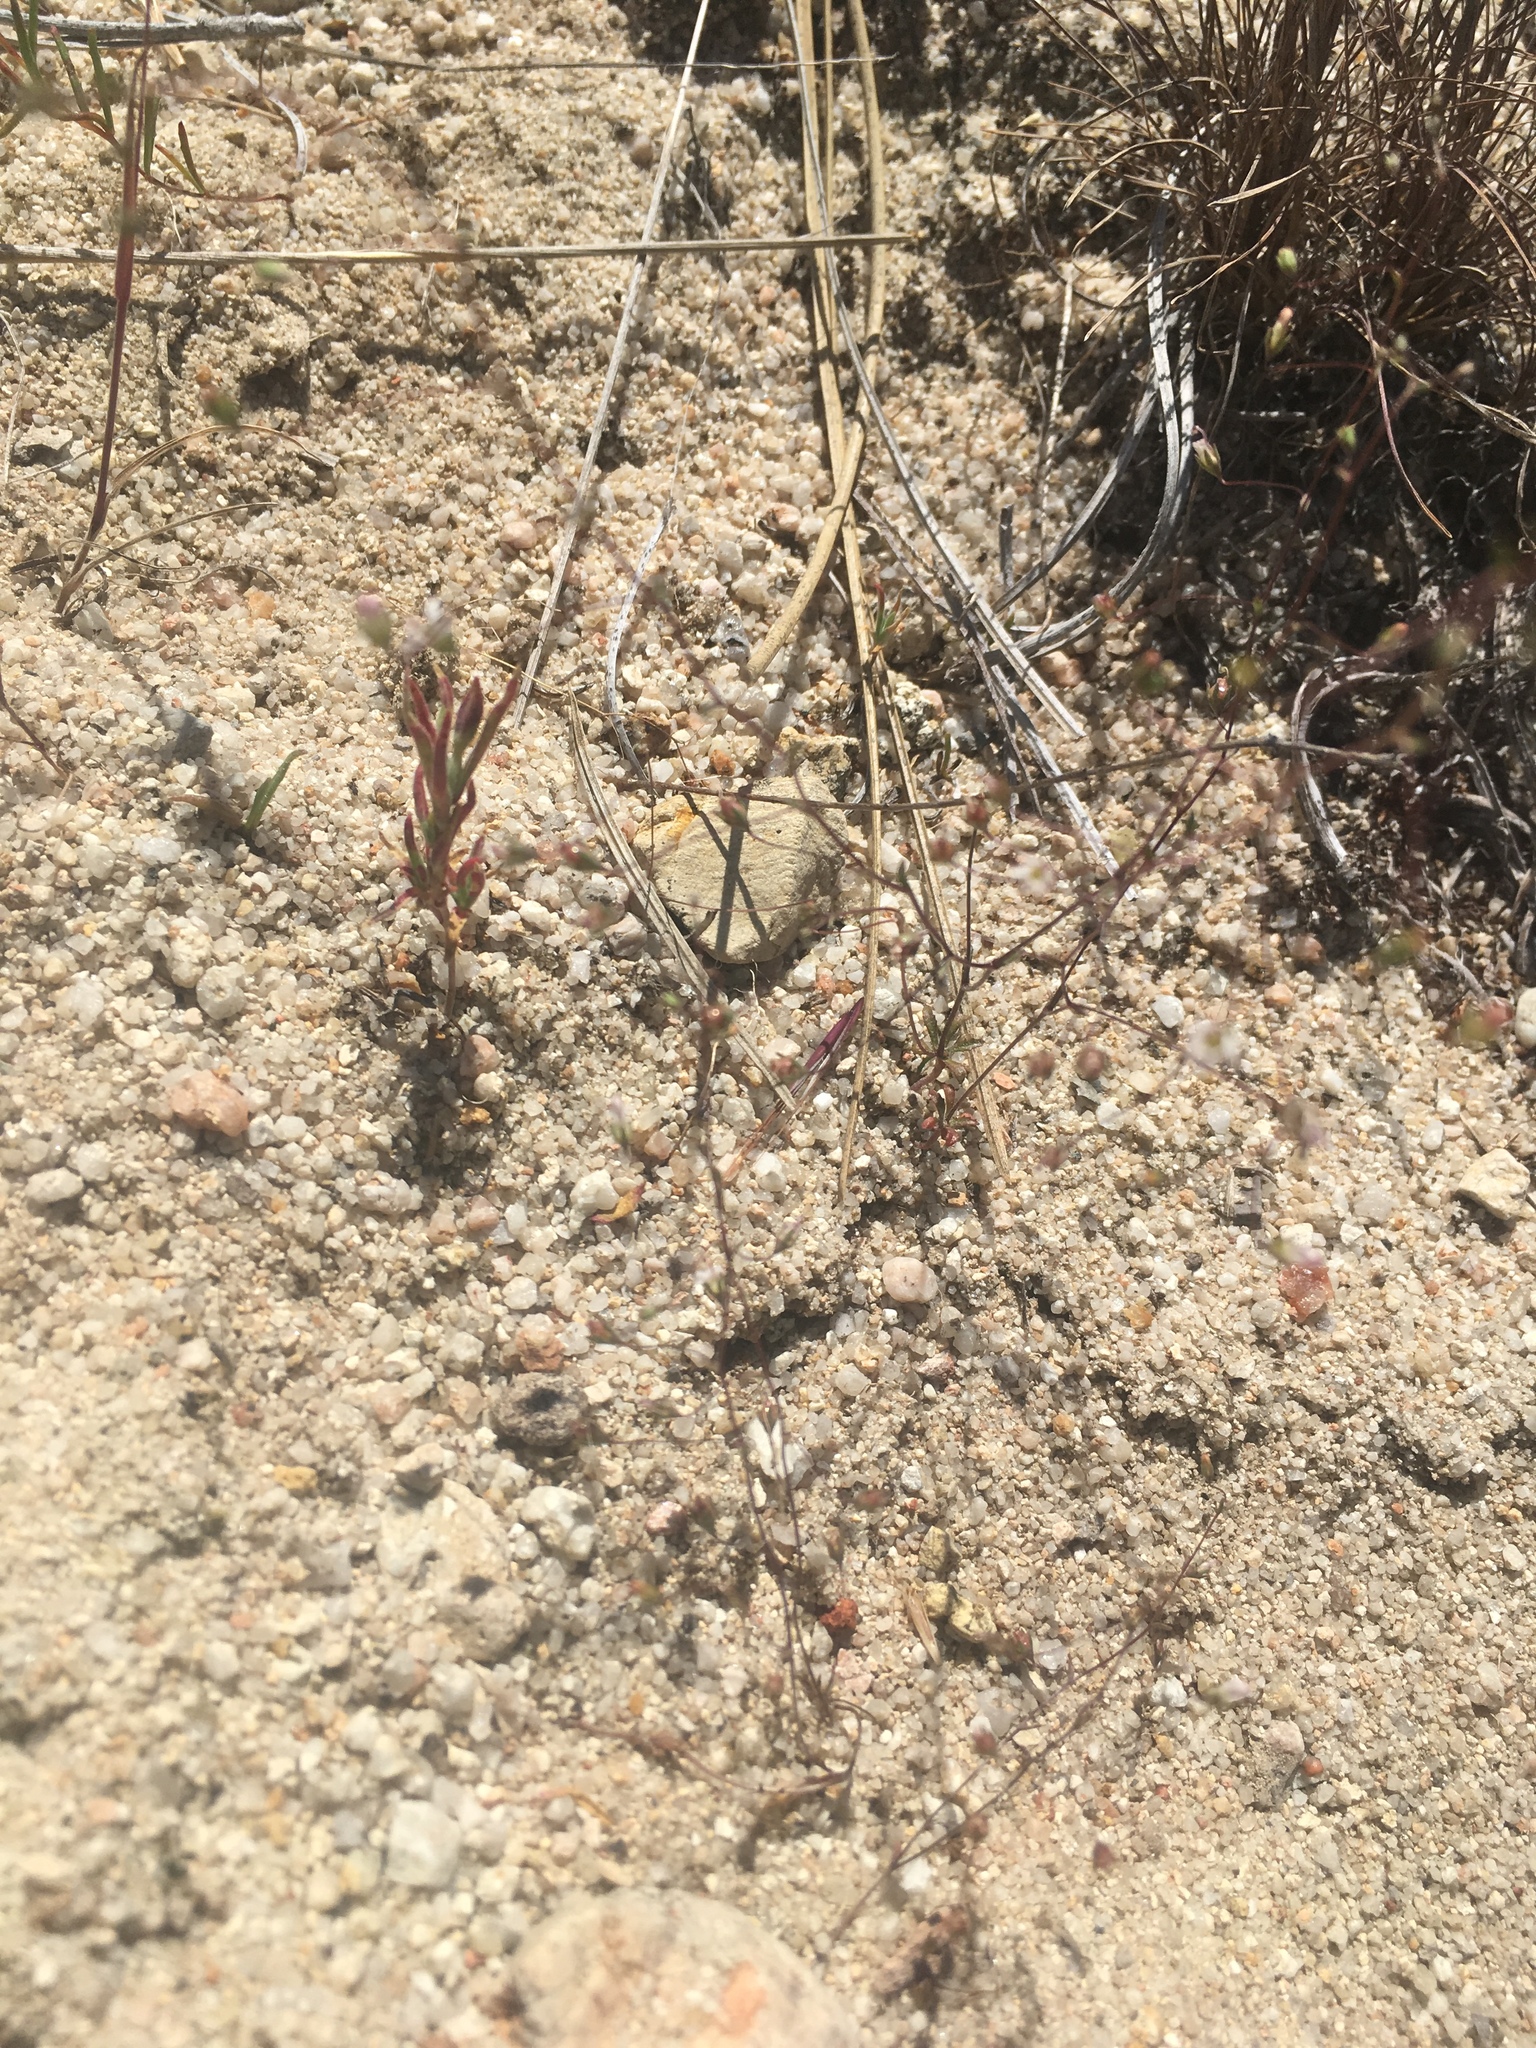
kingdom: Plantae
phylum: Tracheophyta
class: Magnoliopsida
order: Asterales
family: Campanulaceae
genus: Nemacladus
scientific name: Nemacladus secundiflorus
